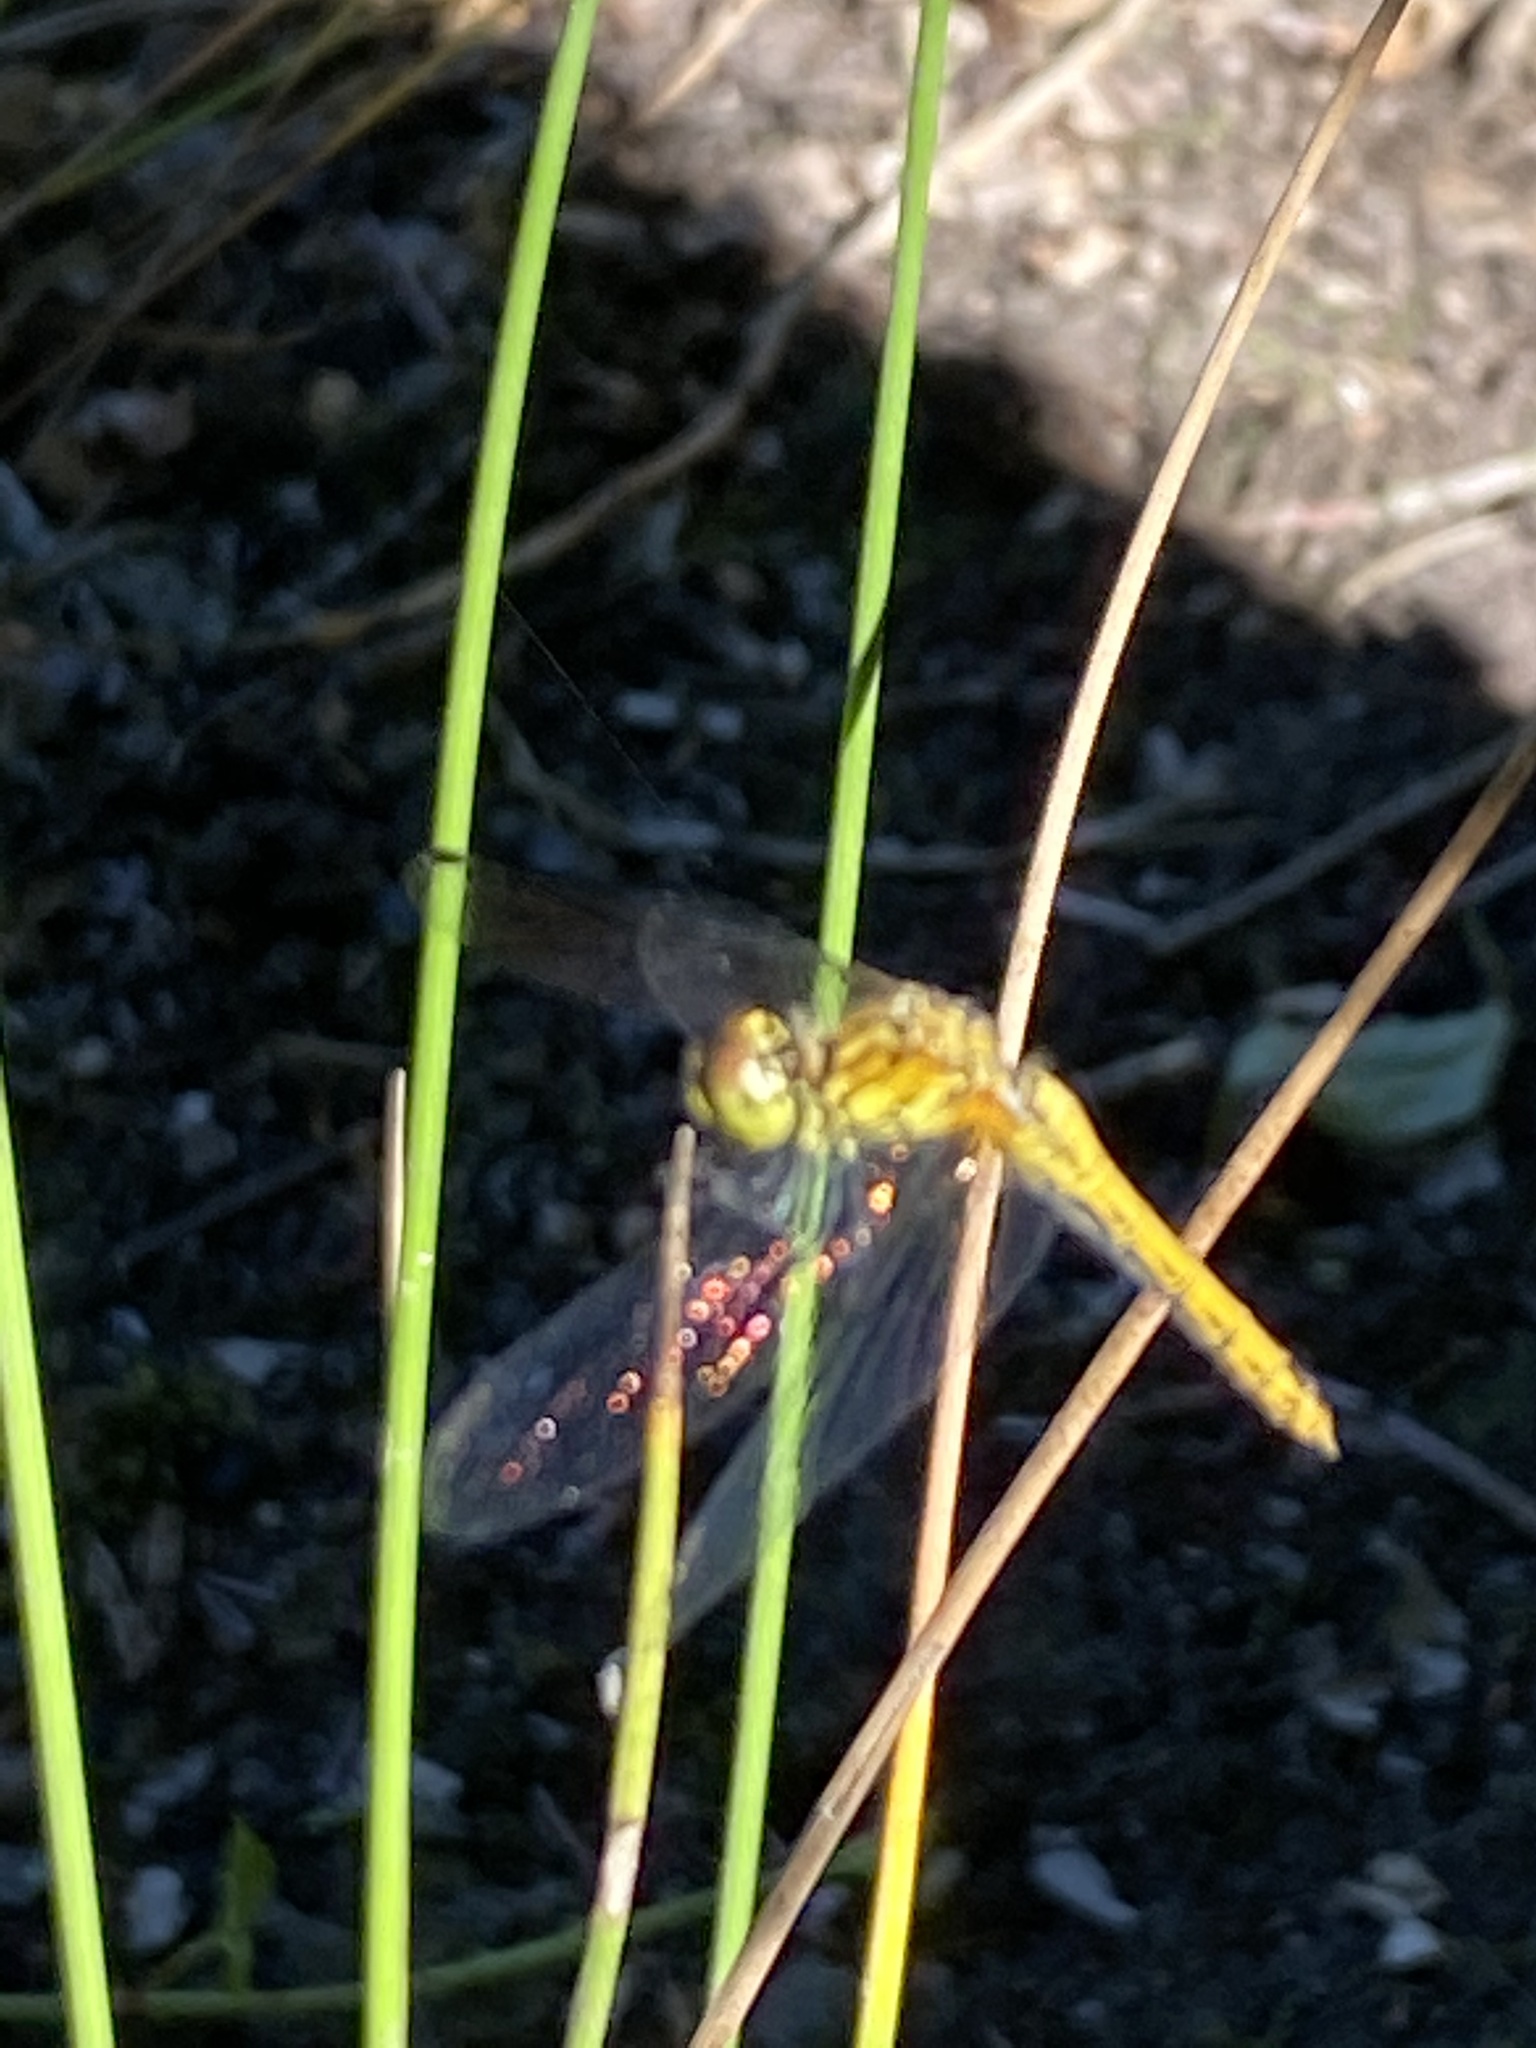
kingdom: Animalia
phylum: Arthropoda
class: Insecta
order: Odonata
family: Libellulidae
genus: Sympetrum
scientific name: Sympetrum sanguineum
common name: Ruddy darter
